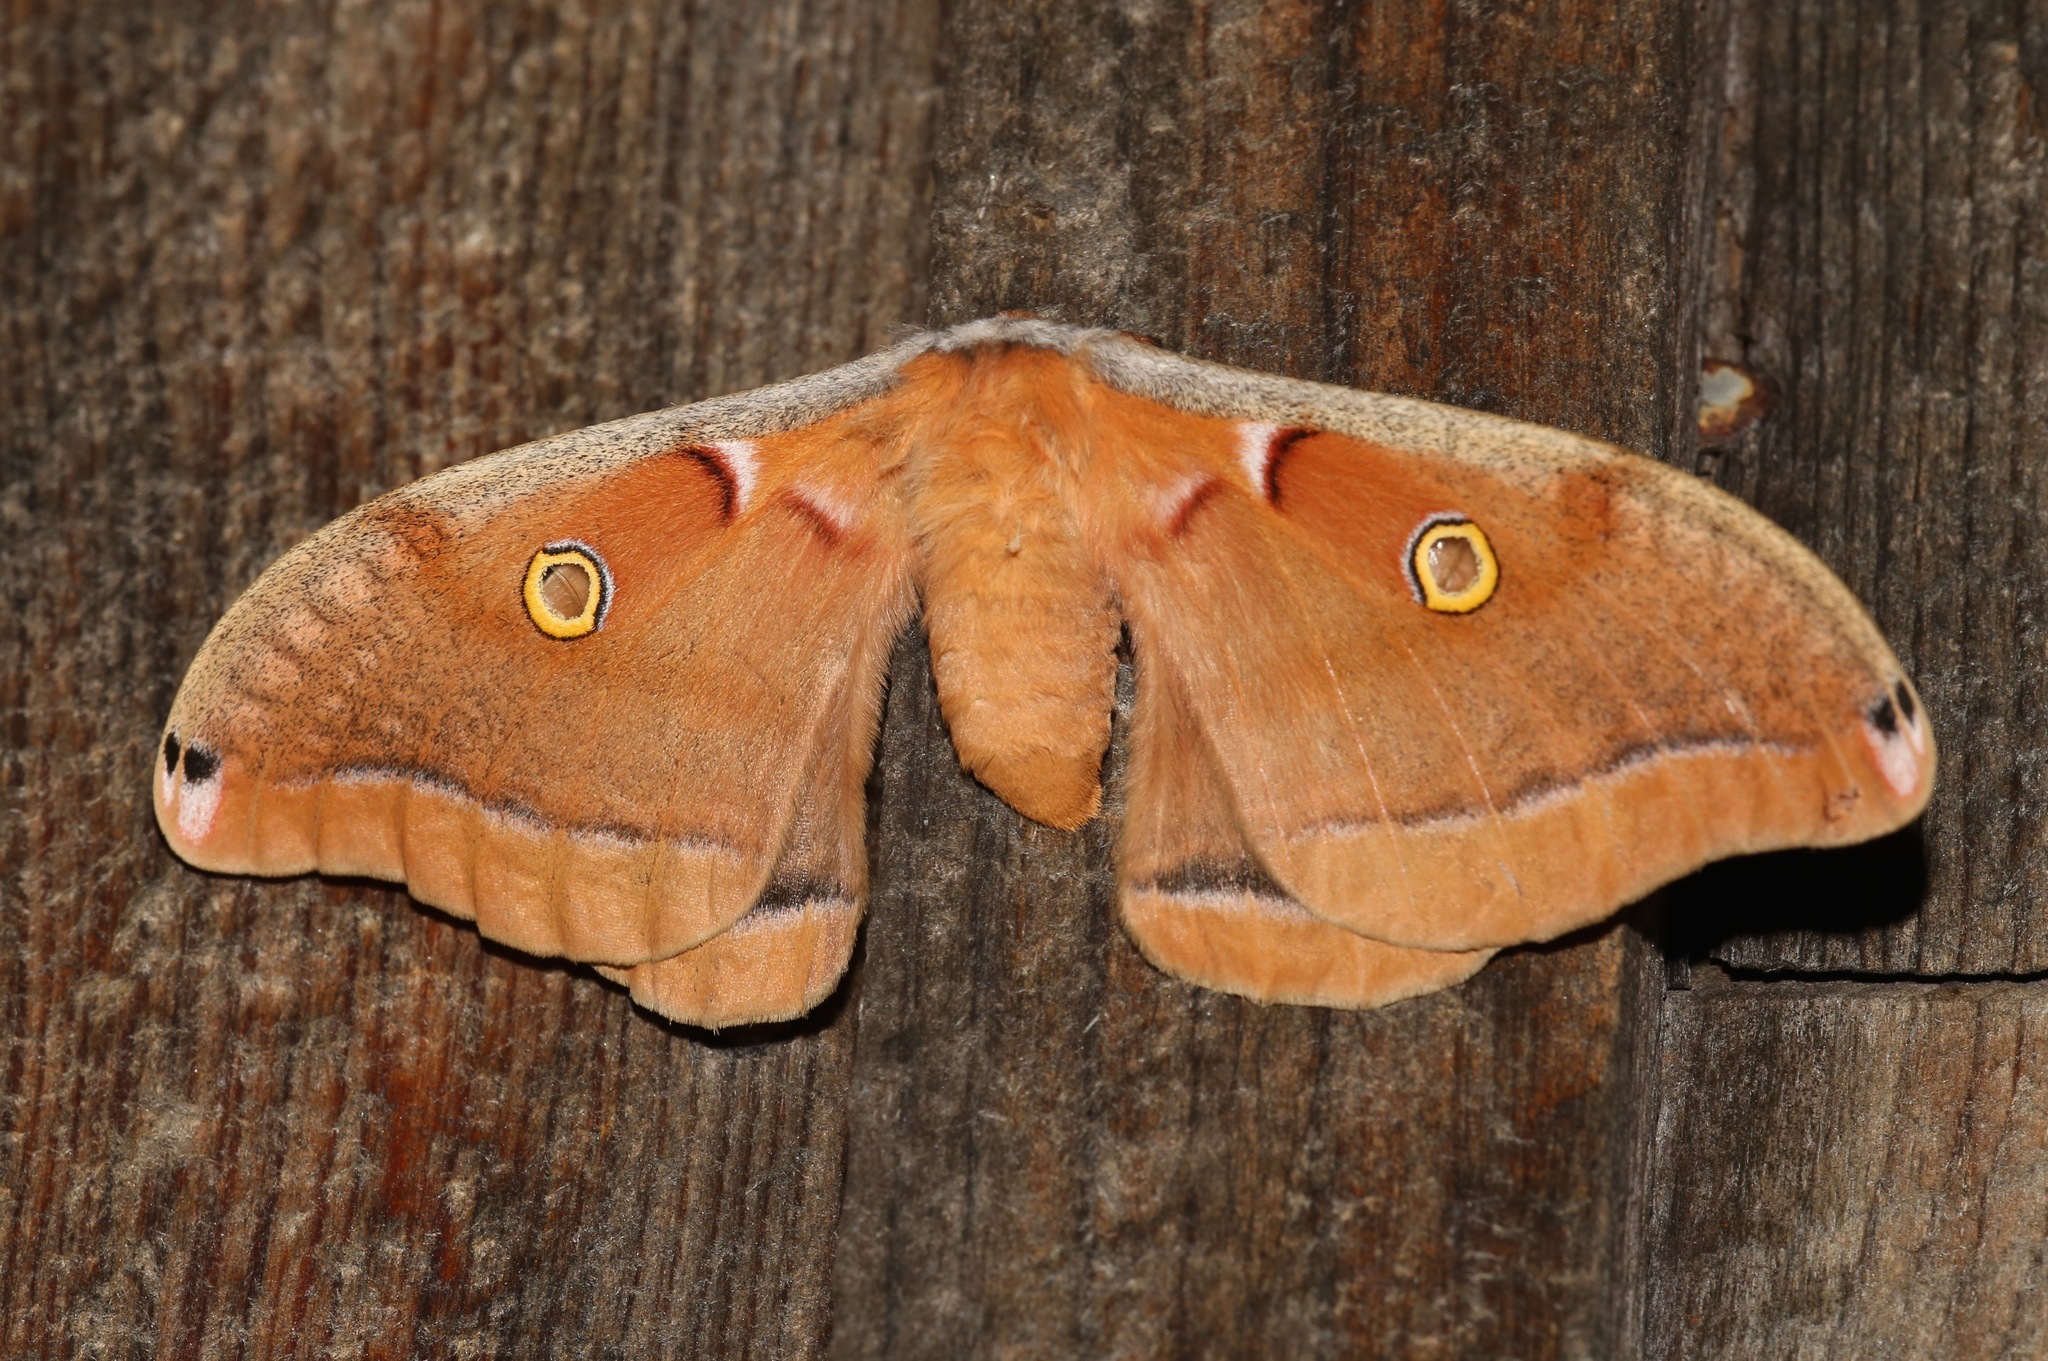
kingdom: Animalia
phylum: Arthropoda
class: Insecta
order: Lepidoptera
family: Saturniidae
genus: Antheraea
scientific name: Antheraea polyphemus
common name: Polyphemus moth
